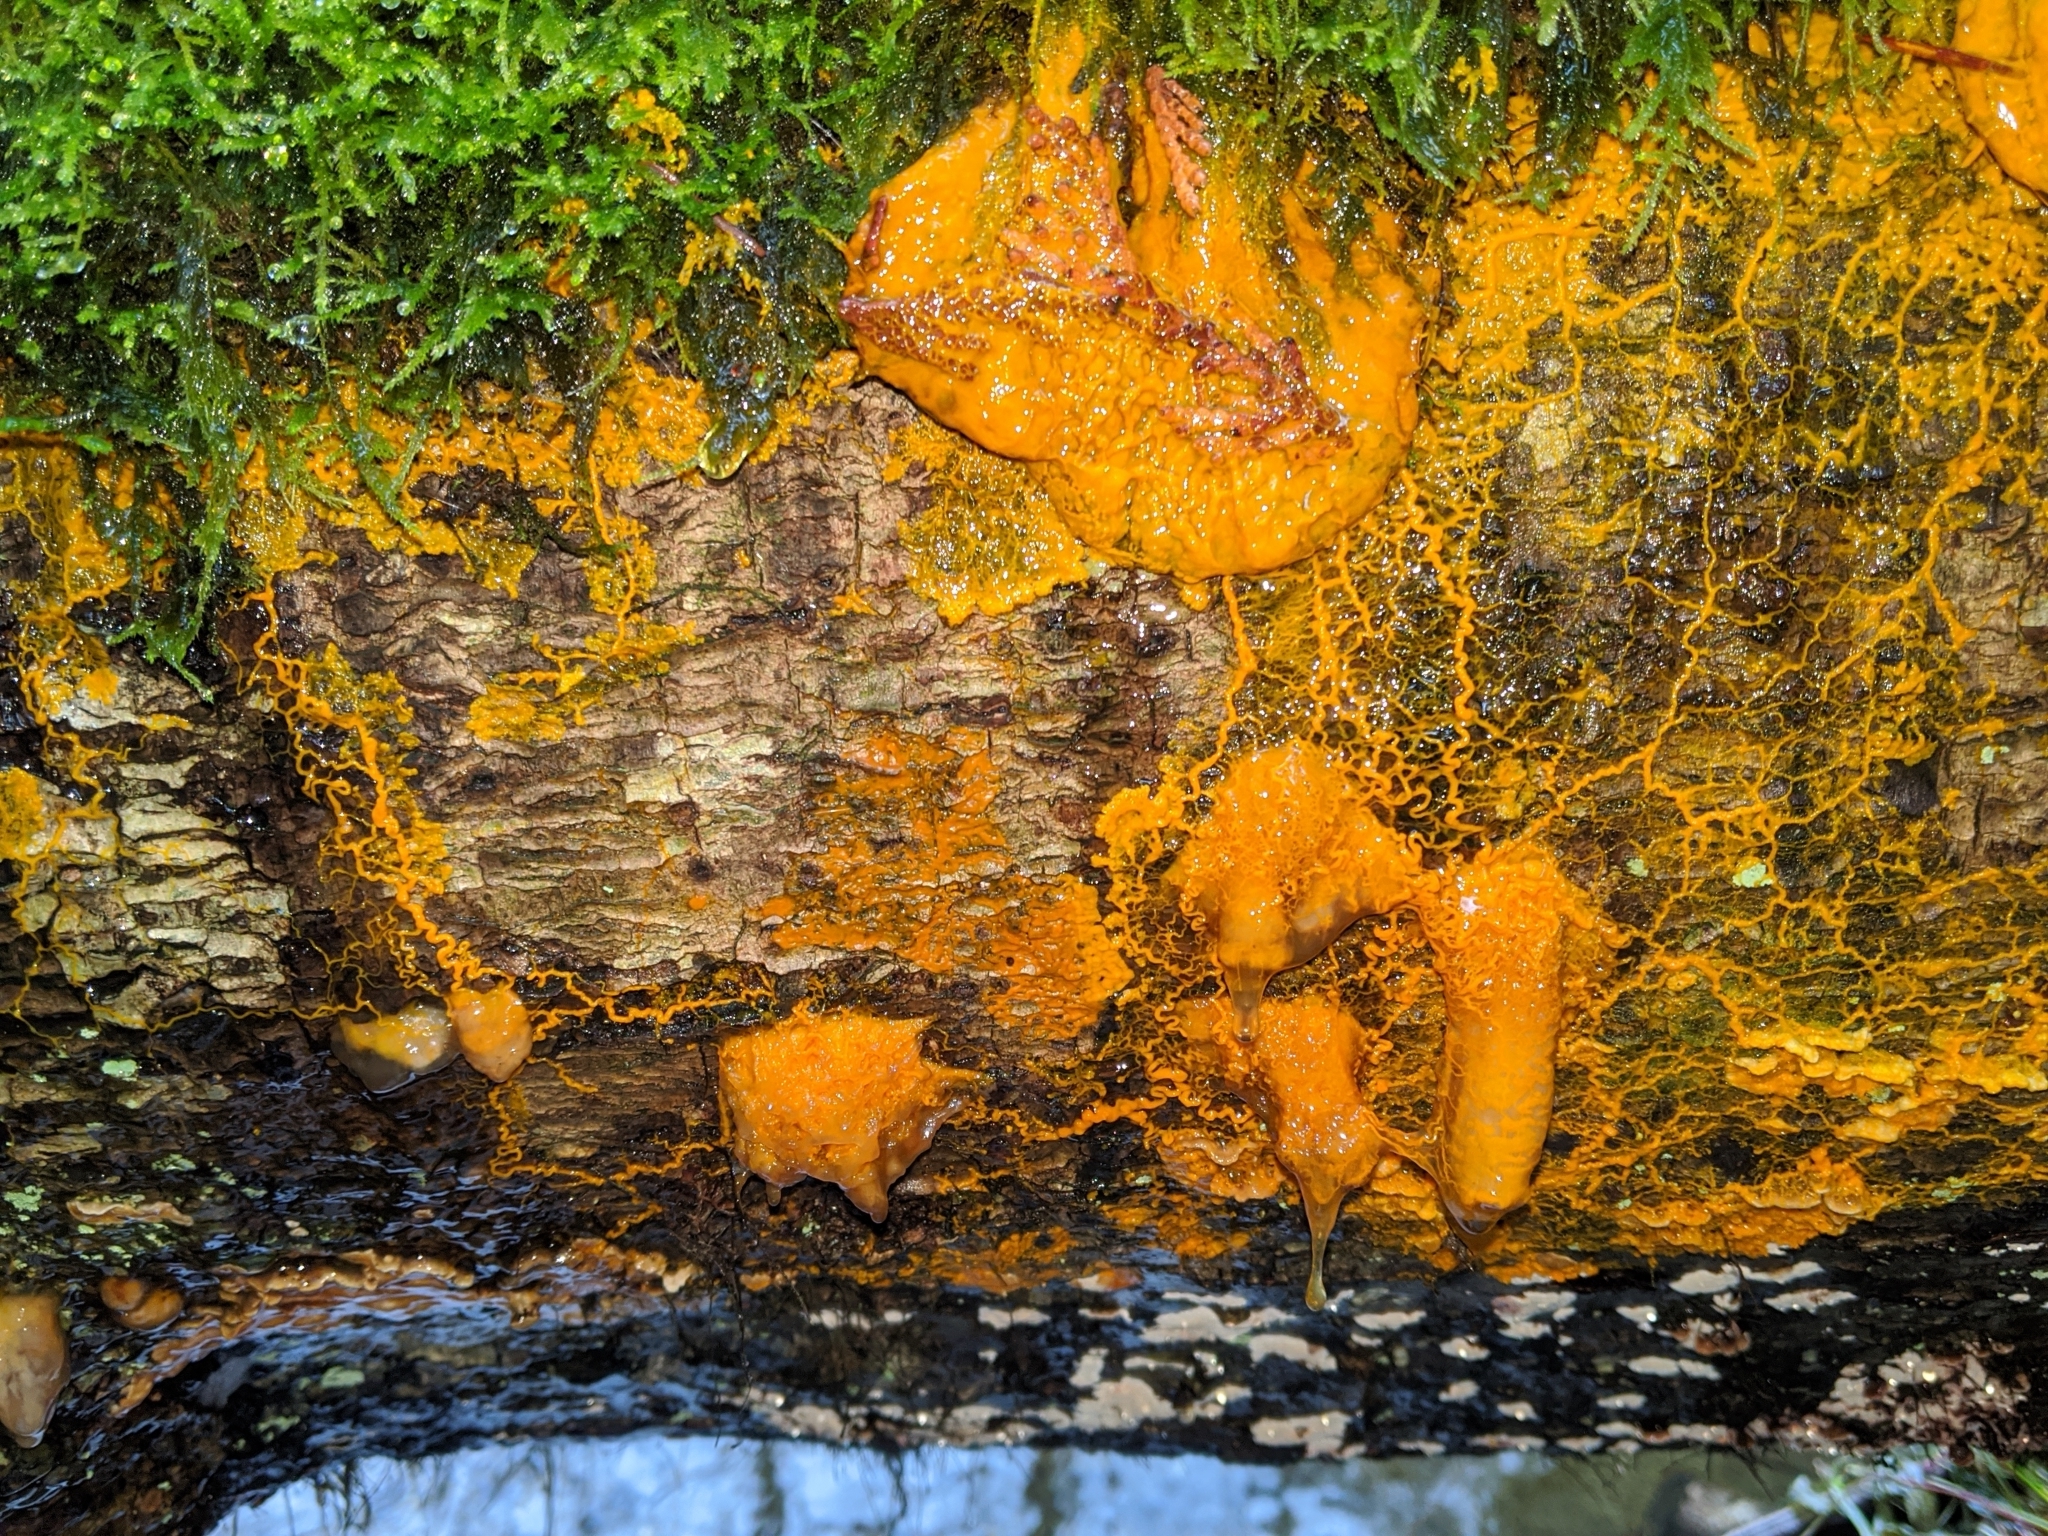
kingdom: Protozoa
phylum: Mycetozoa
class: Myxomycetes
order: Physarales
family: Physaraceae
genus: Badhamia
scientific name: Badhamia utricularis
